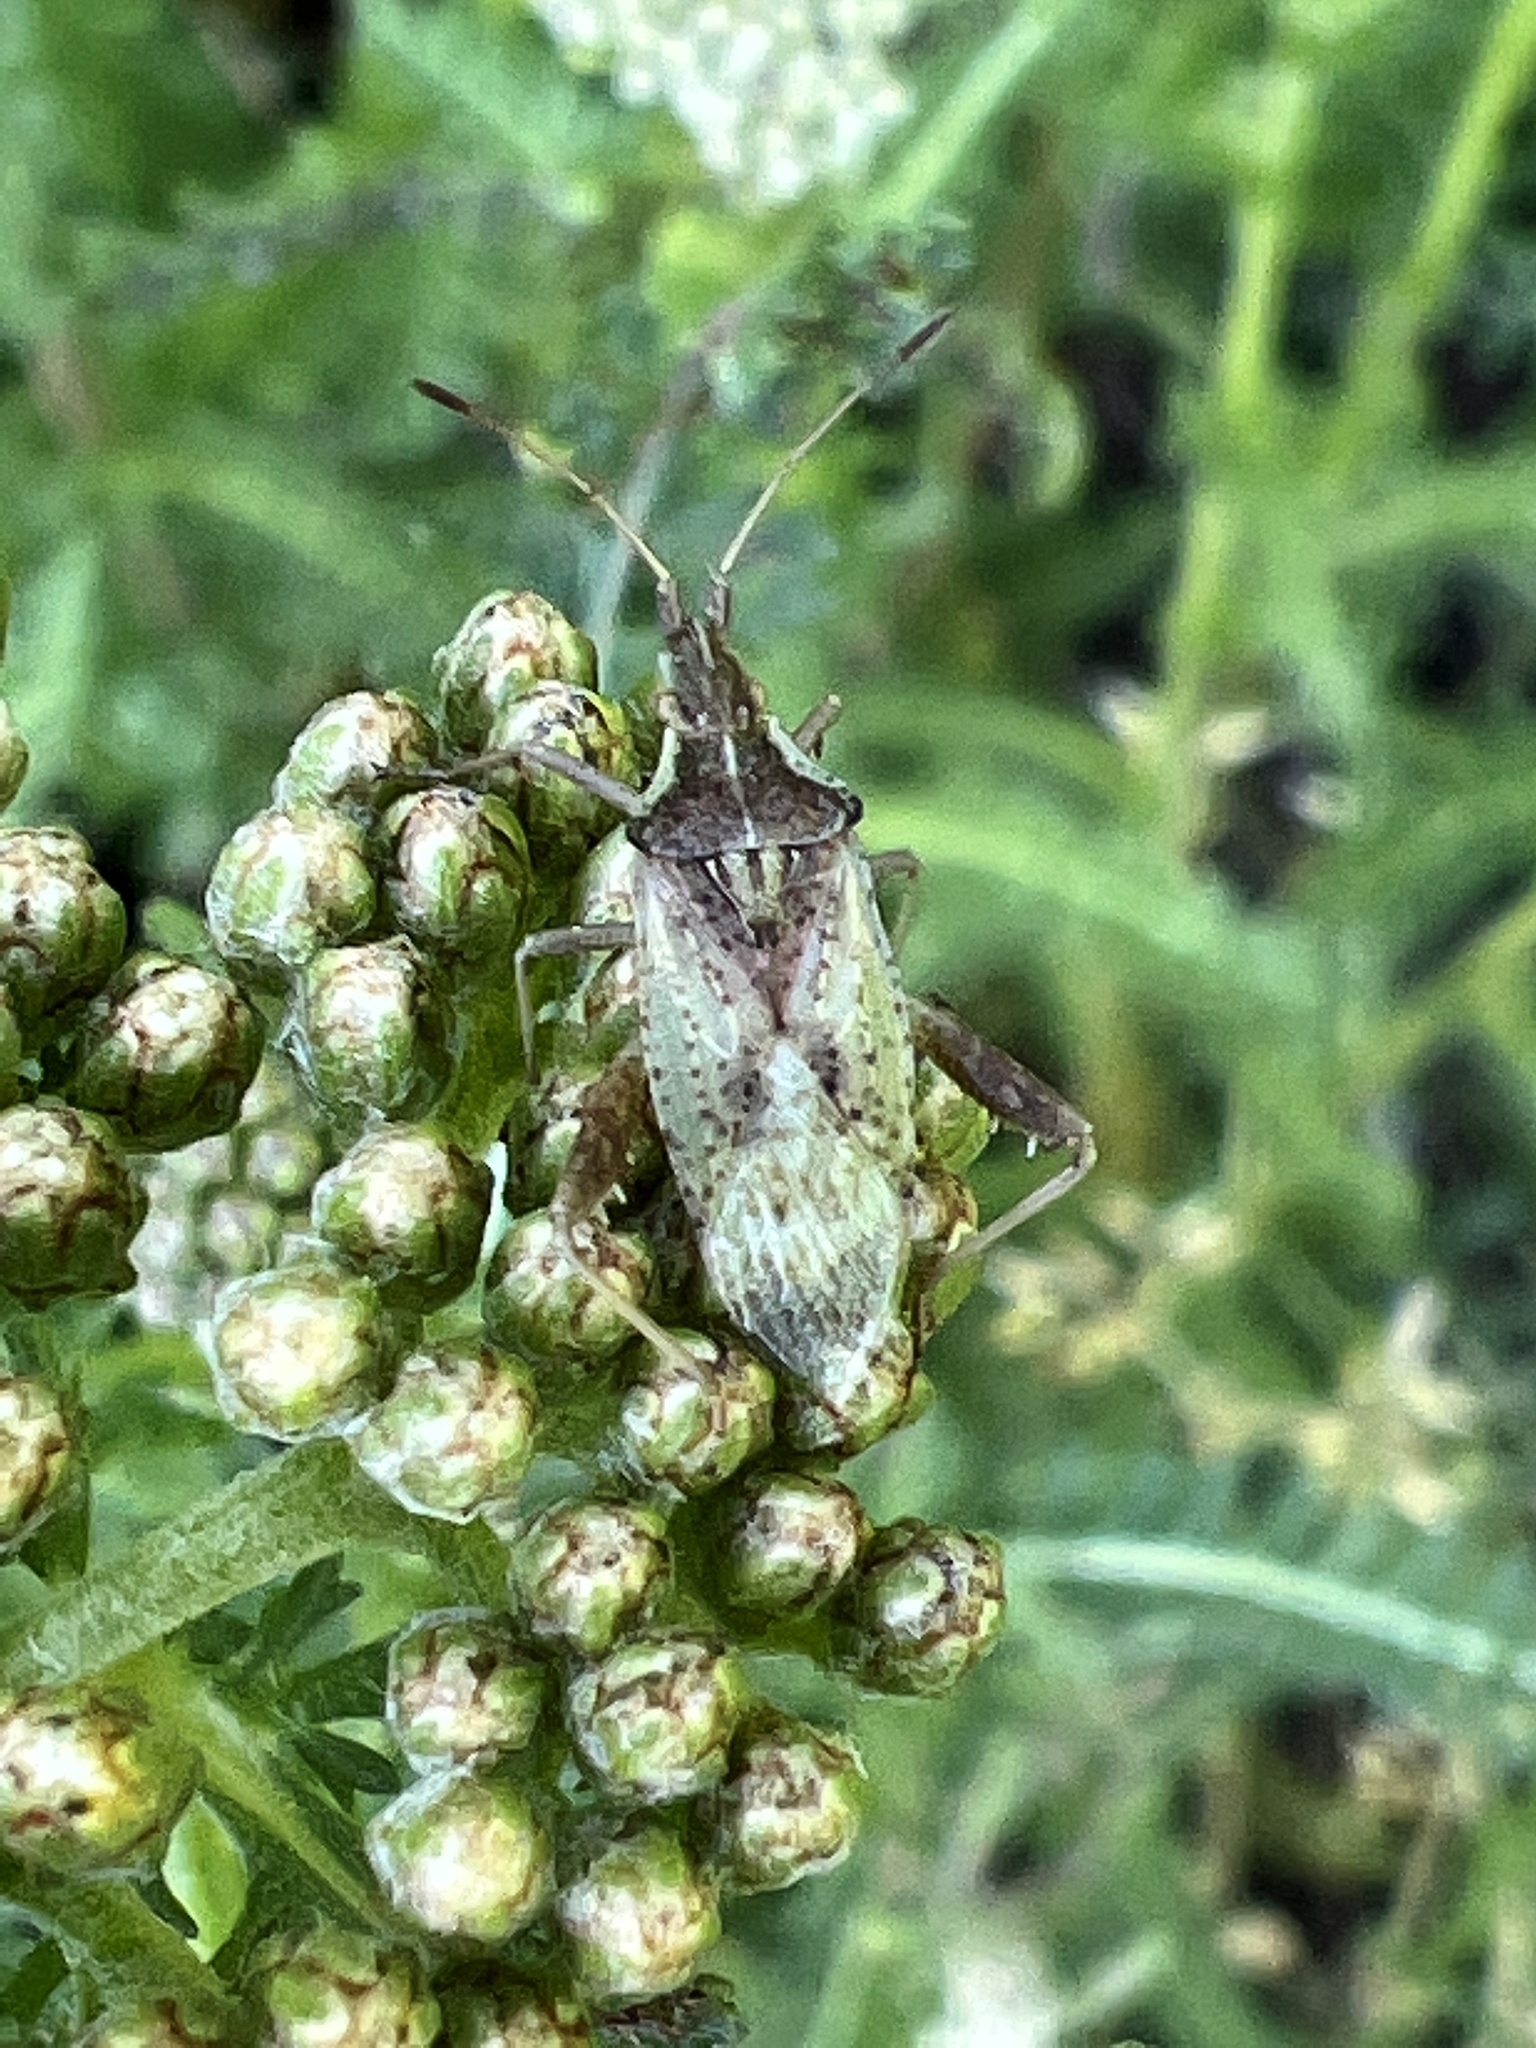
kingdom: Animalia
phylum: Arthropoda
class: Insecta
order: Hemiptera
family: Rhopalidae
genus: Harmostes
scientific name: Harmostes reflexulus
